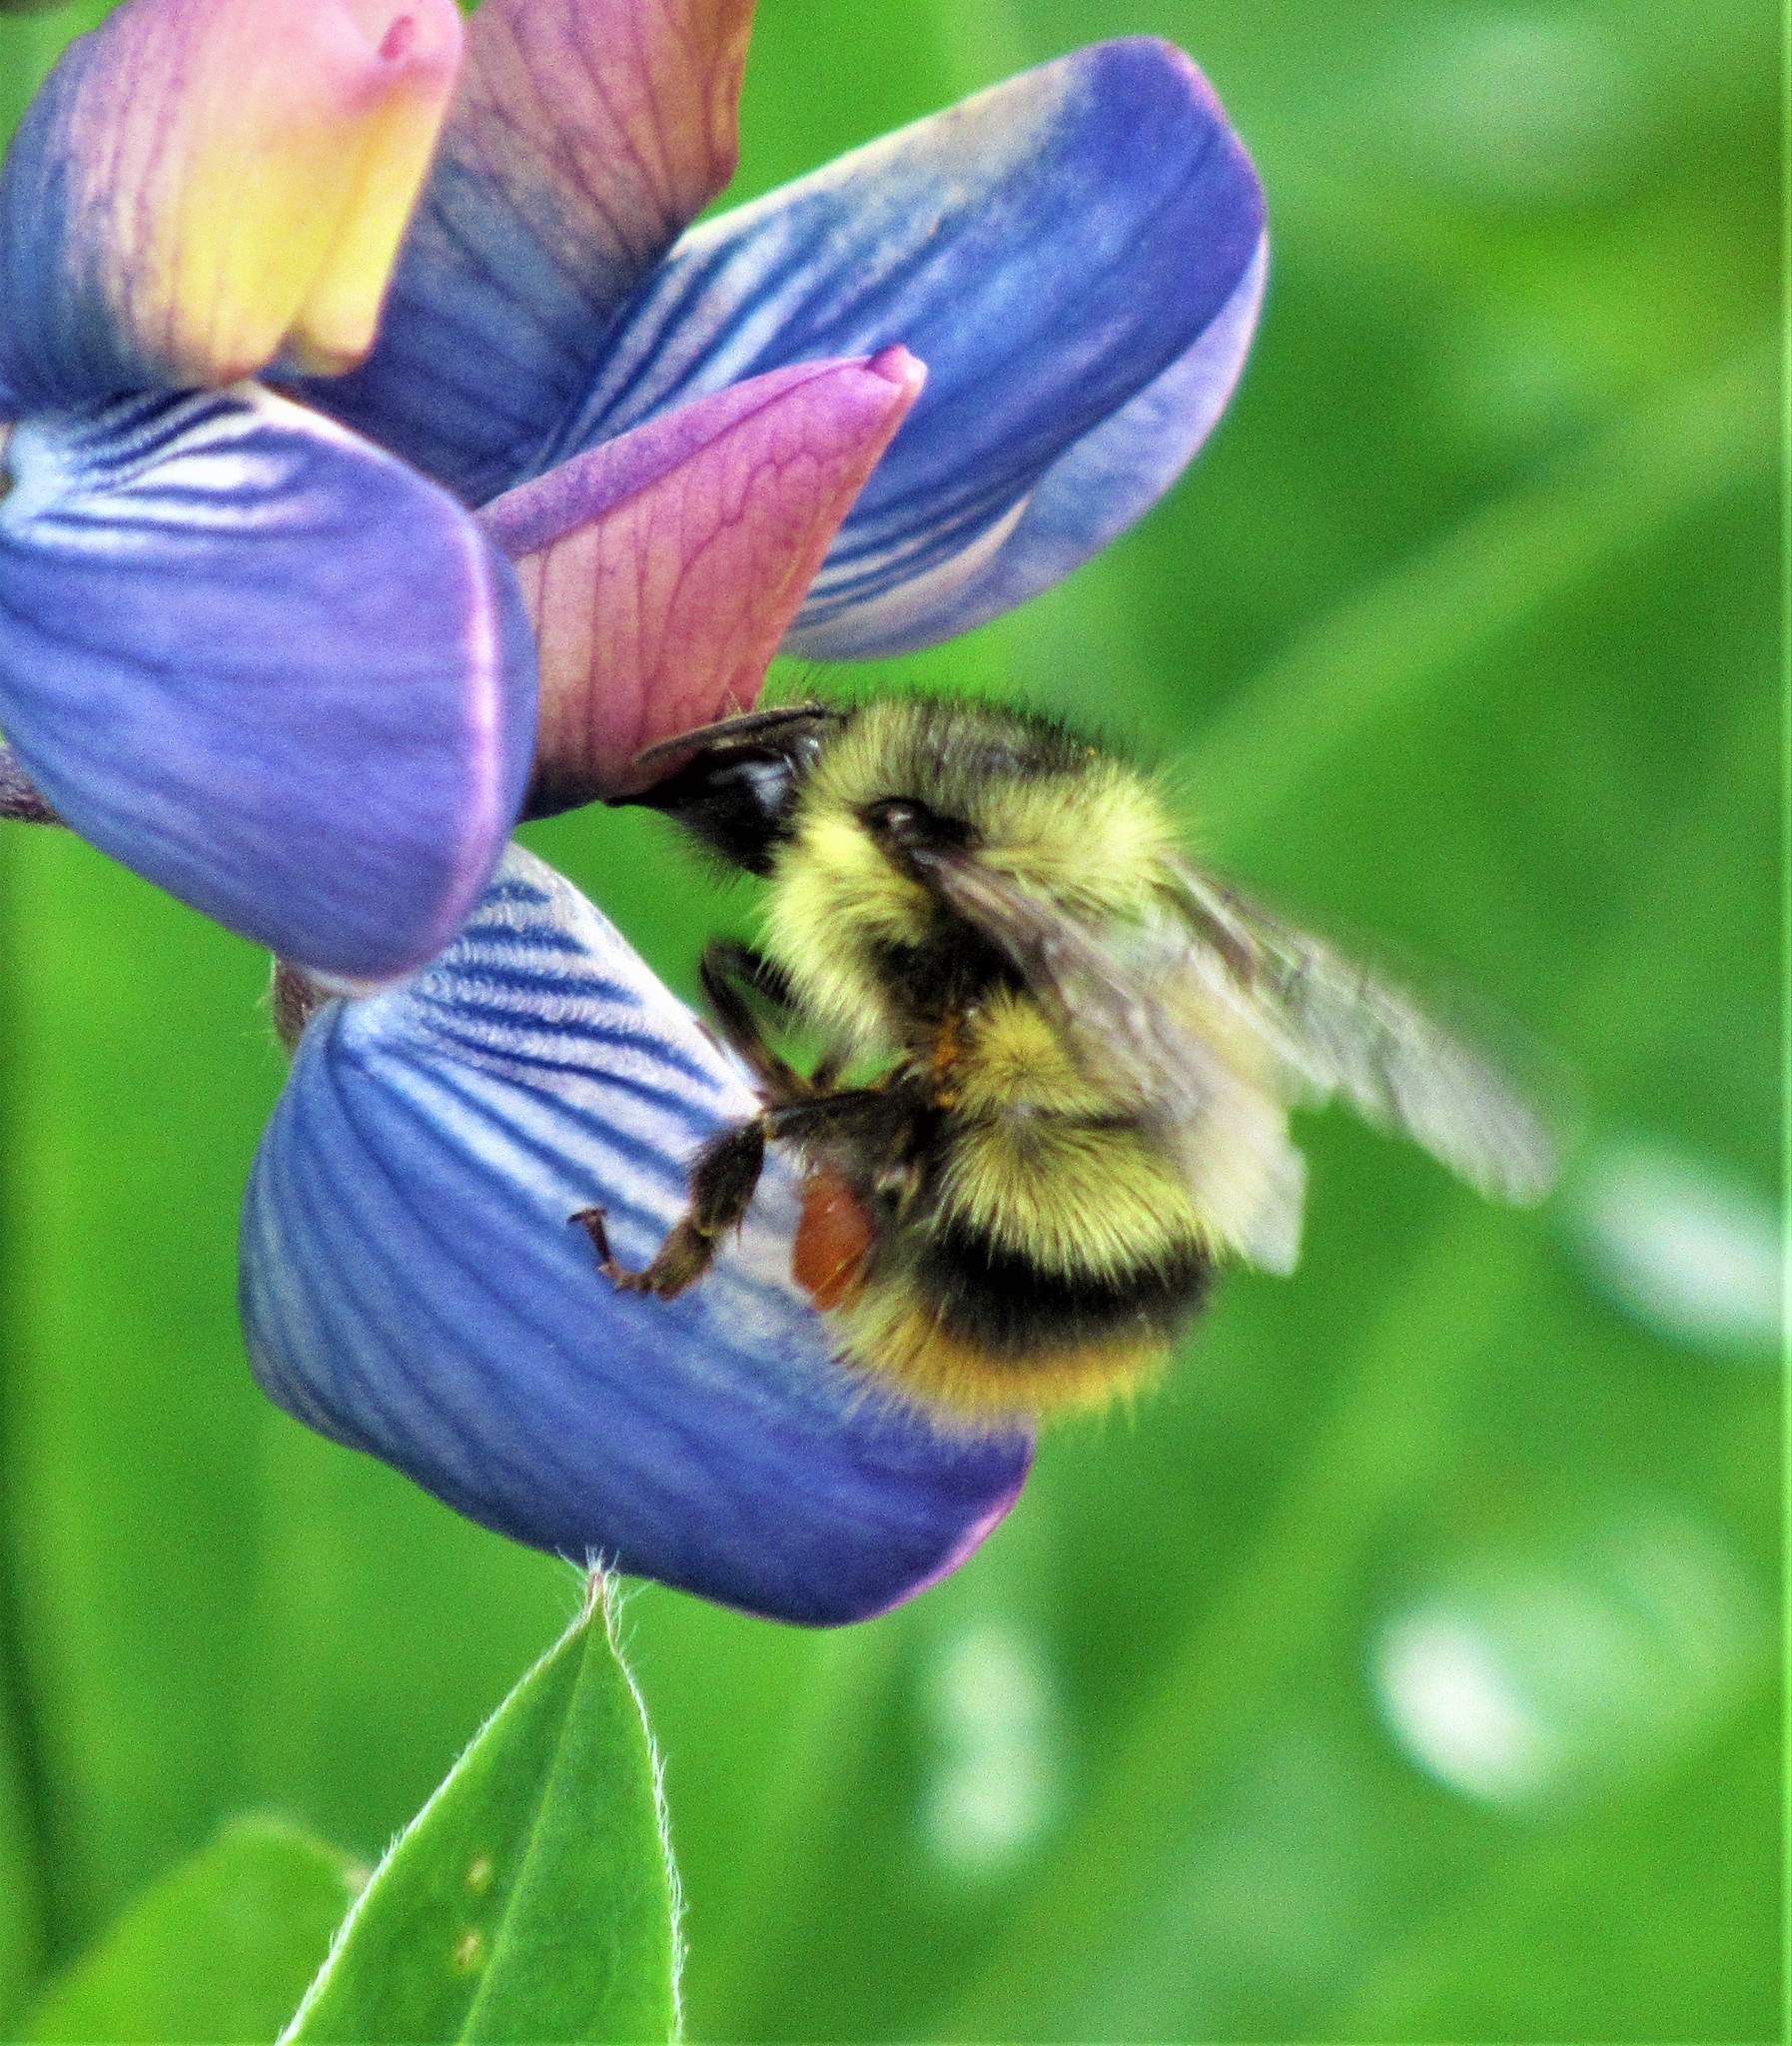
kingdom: Animalia
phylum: Arthropoda
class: Insecta
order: Hymenoptera
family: Apidae
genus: Bombus
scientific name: Bombus mixtus
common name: Fuzzy-horned bumble bee
